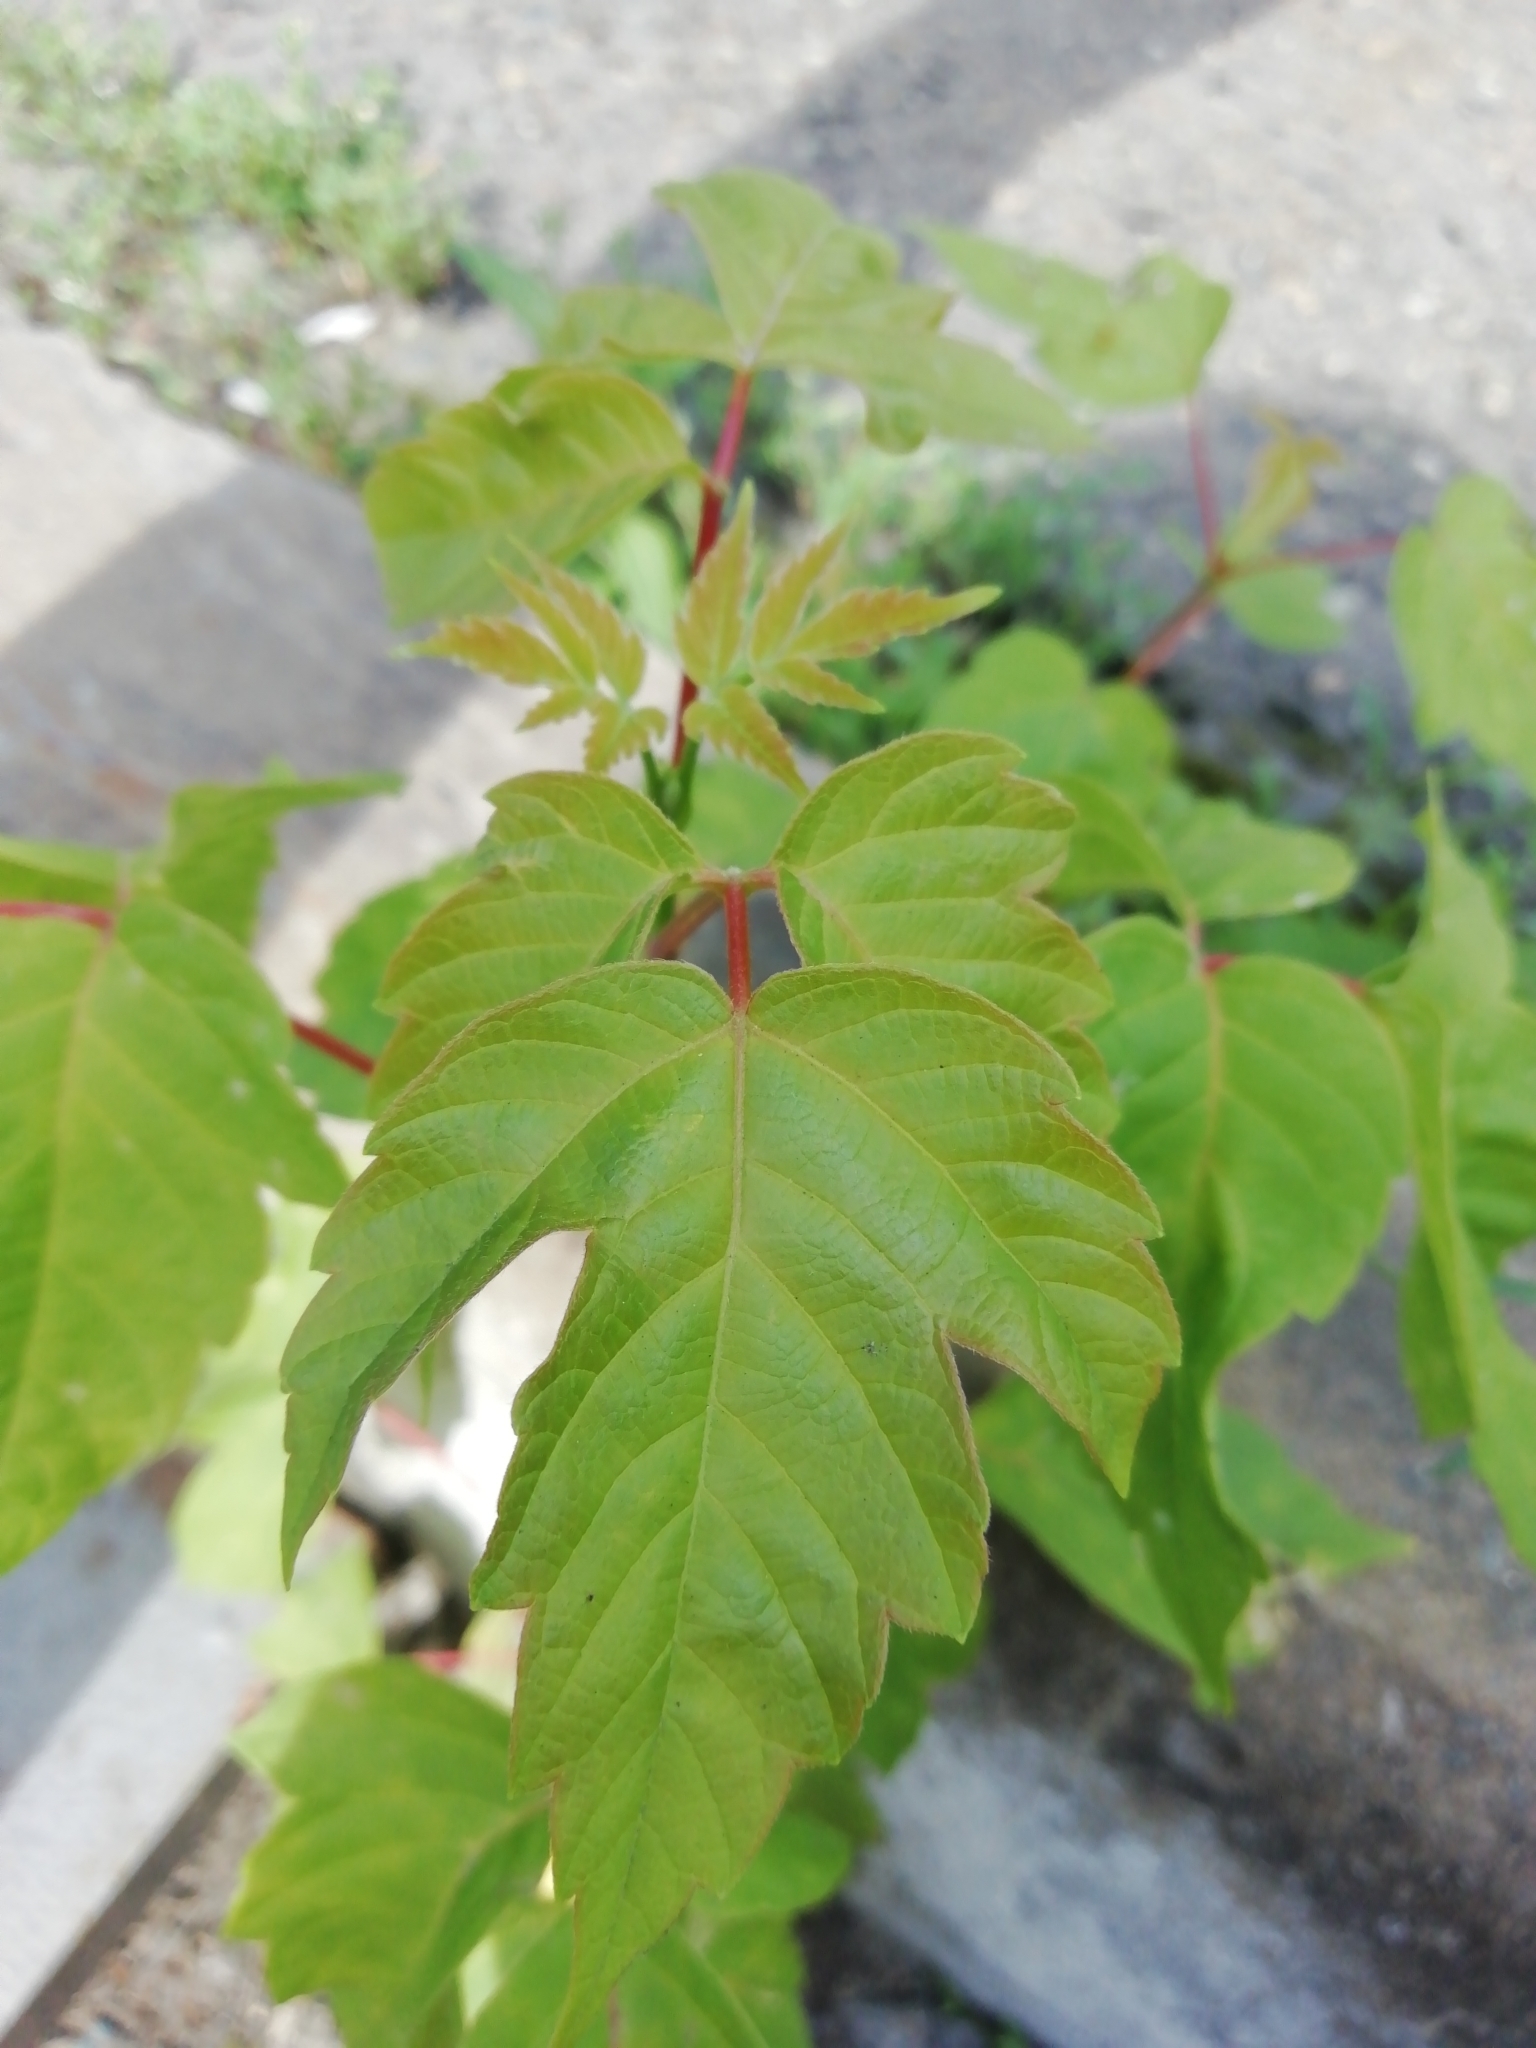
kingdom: Plantae
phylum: Tracheophyta
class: Magnoliopsida
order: Sapindales
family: Sapindaceae
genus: Acer
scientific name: Acer negundo
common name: Ashleaf maple
